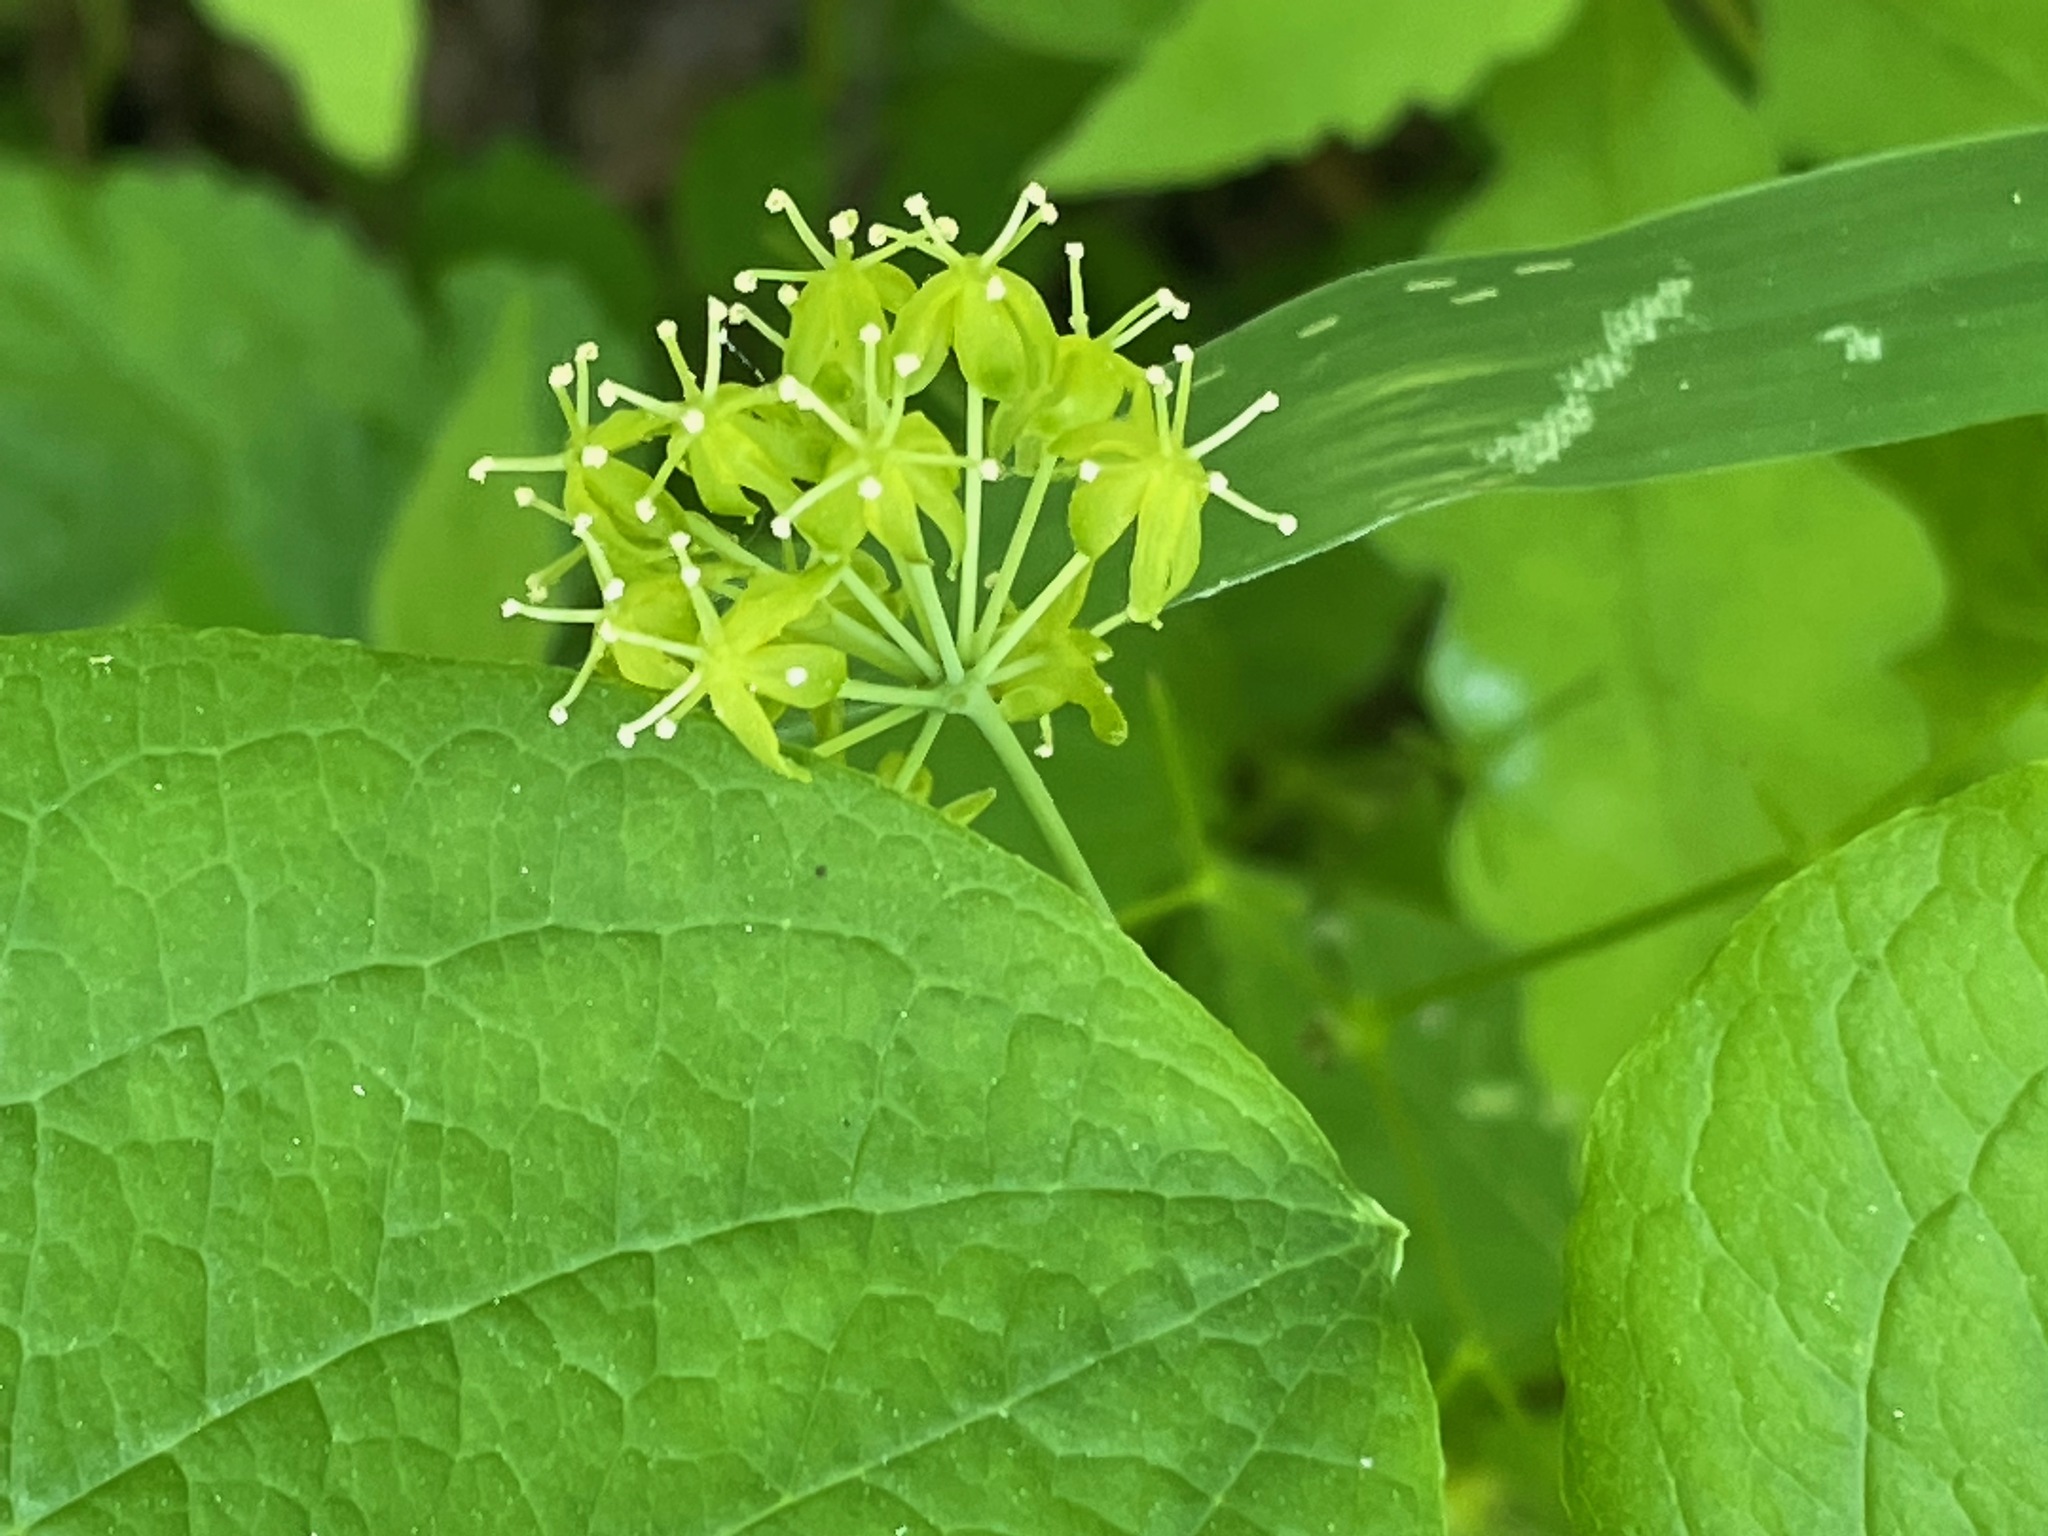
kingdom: Plantae
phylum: Tracheophyta
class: Liliopsida
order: Liliales
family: Smilacaceae
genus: Smilax
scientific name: Smilax herbacea
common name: Jacob's-ladder
